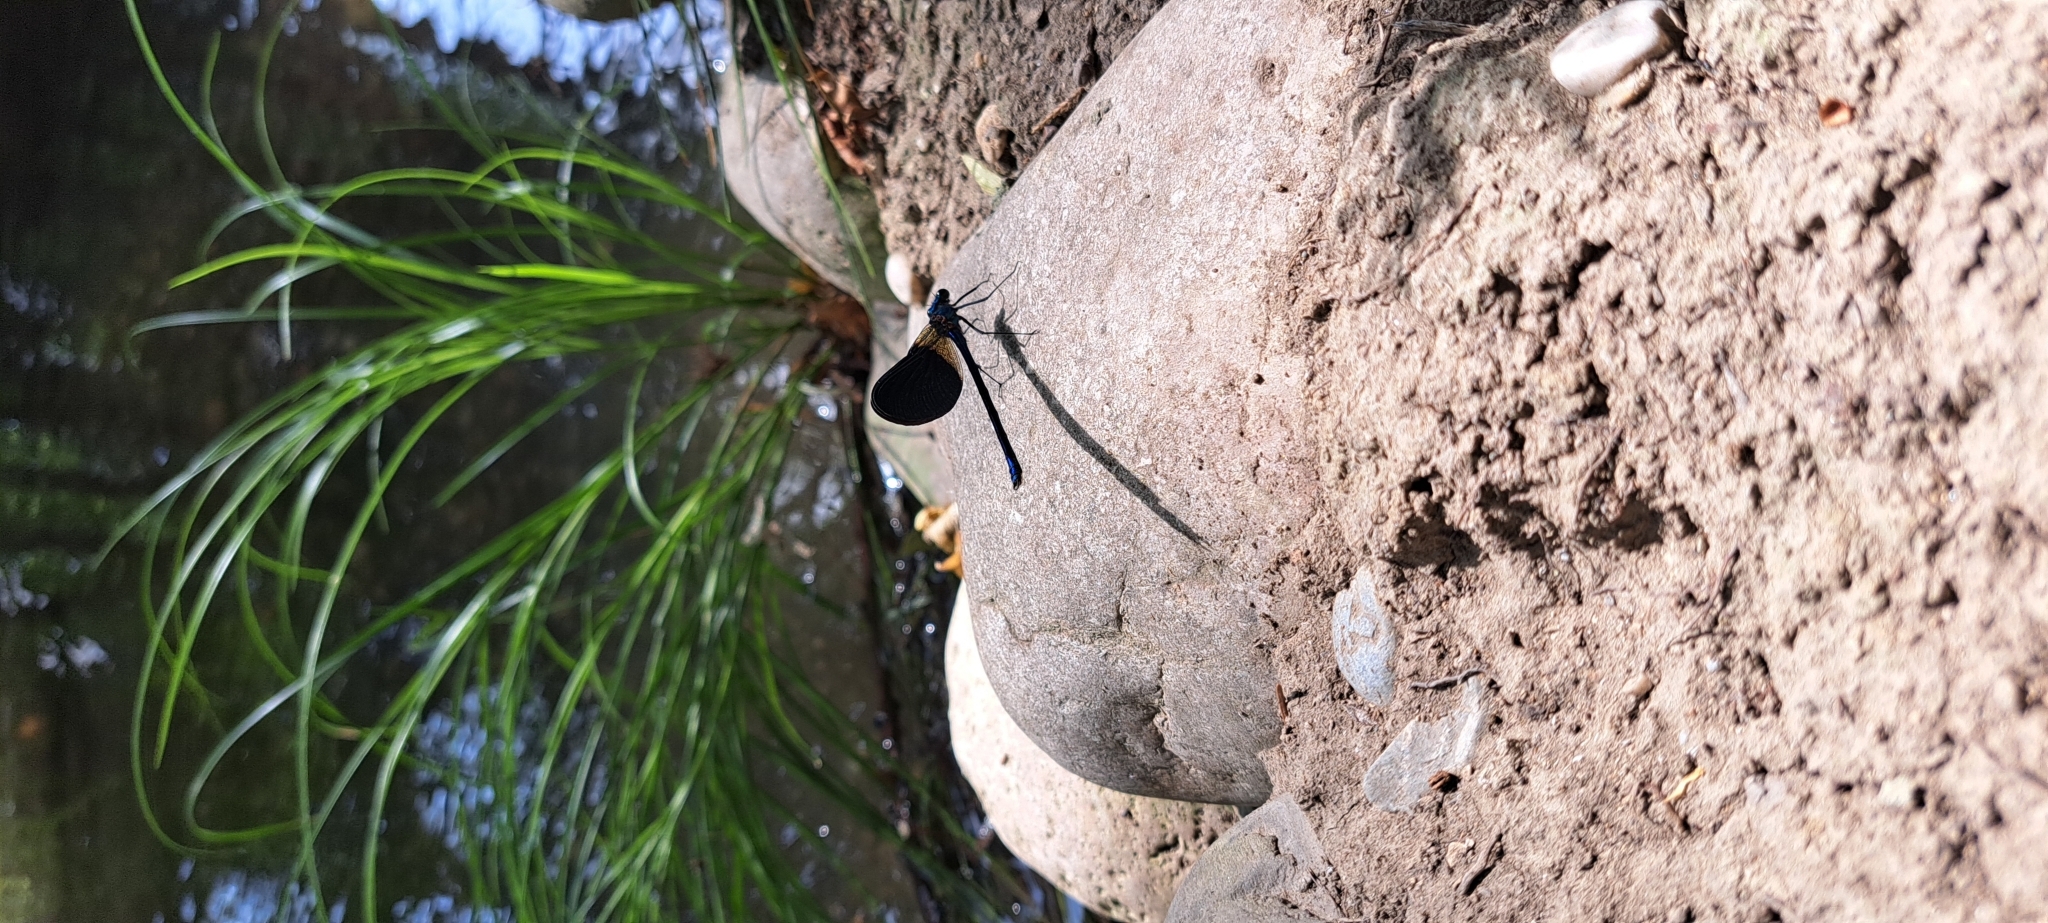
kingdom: Animalia
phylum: Arthropoda
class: Insecta
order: Odonata
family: Calopterygidae
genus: Calopteryx
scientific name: Calopteryx splendens
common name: Banded demoiselle
